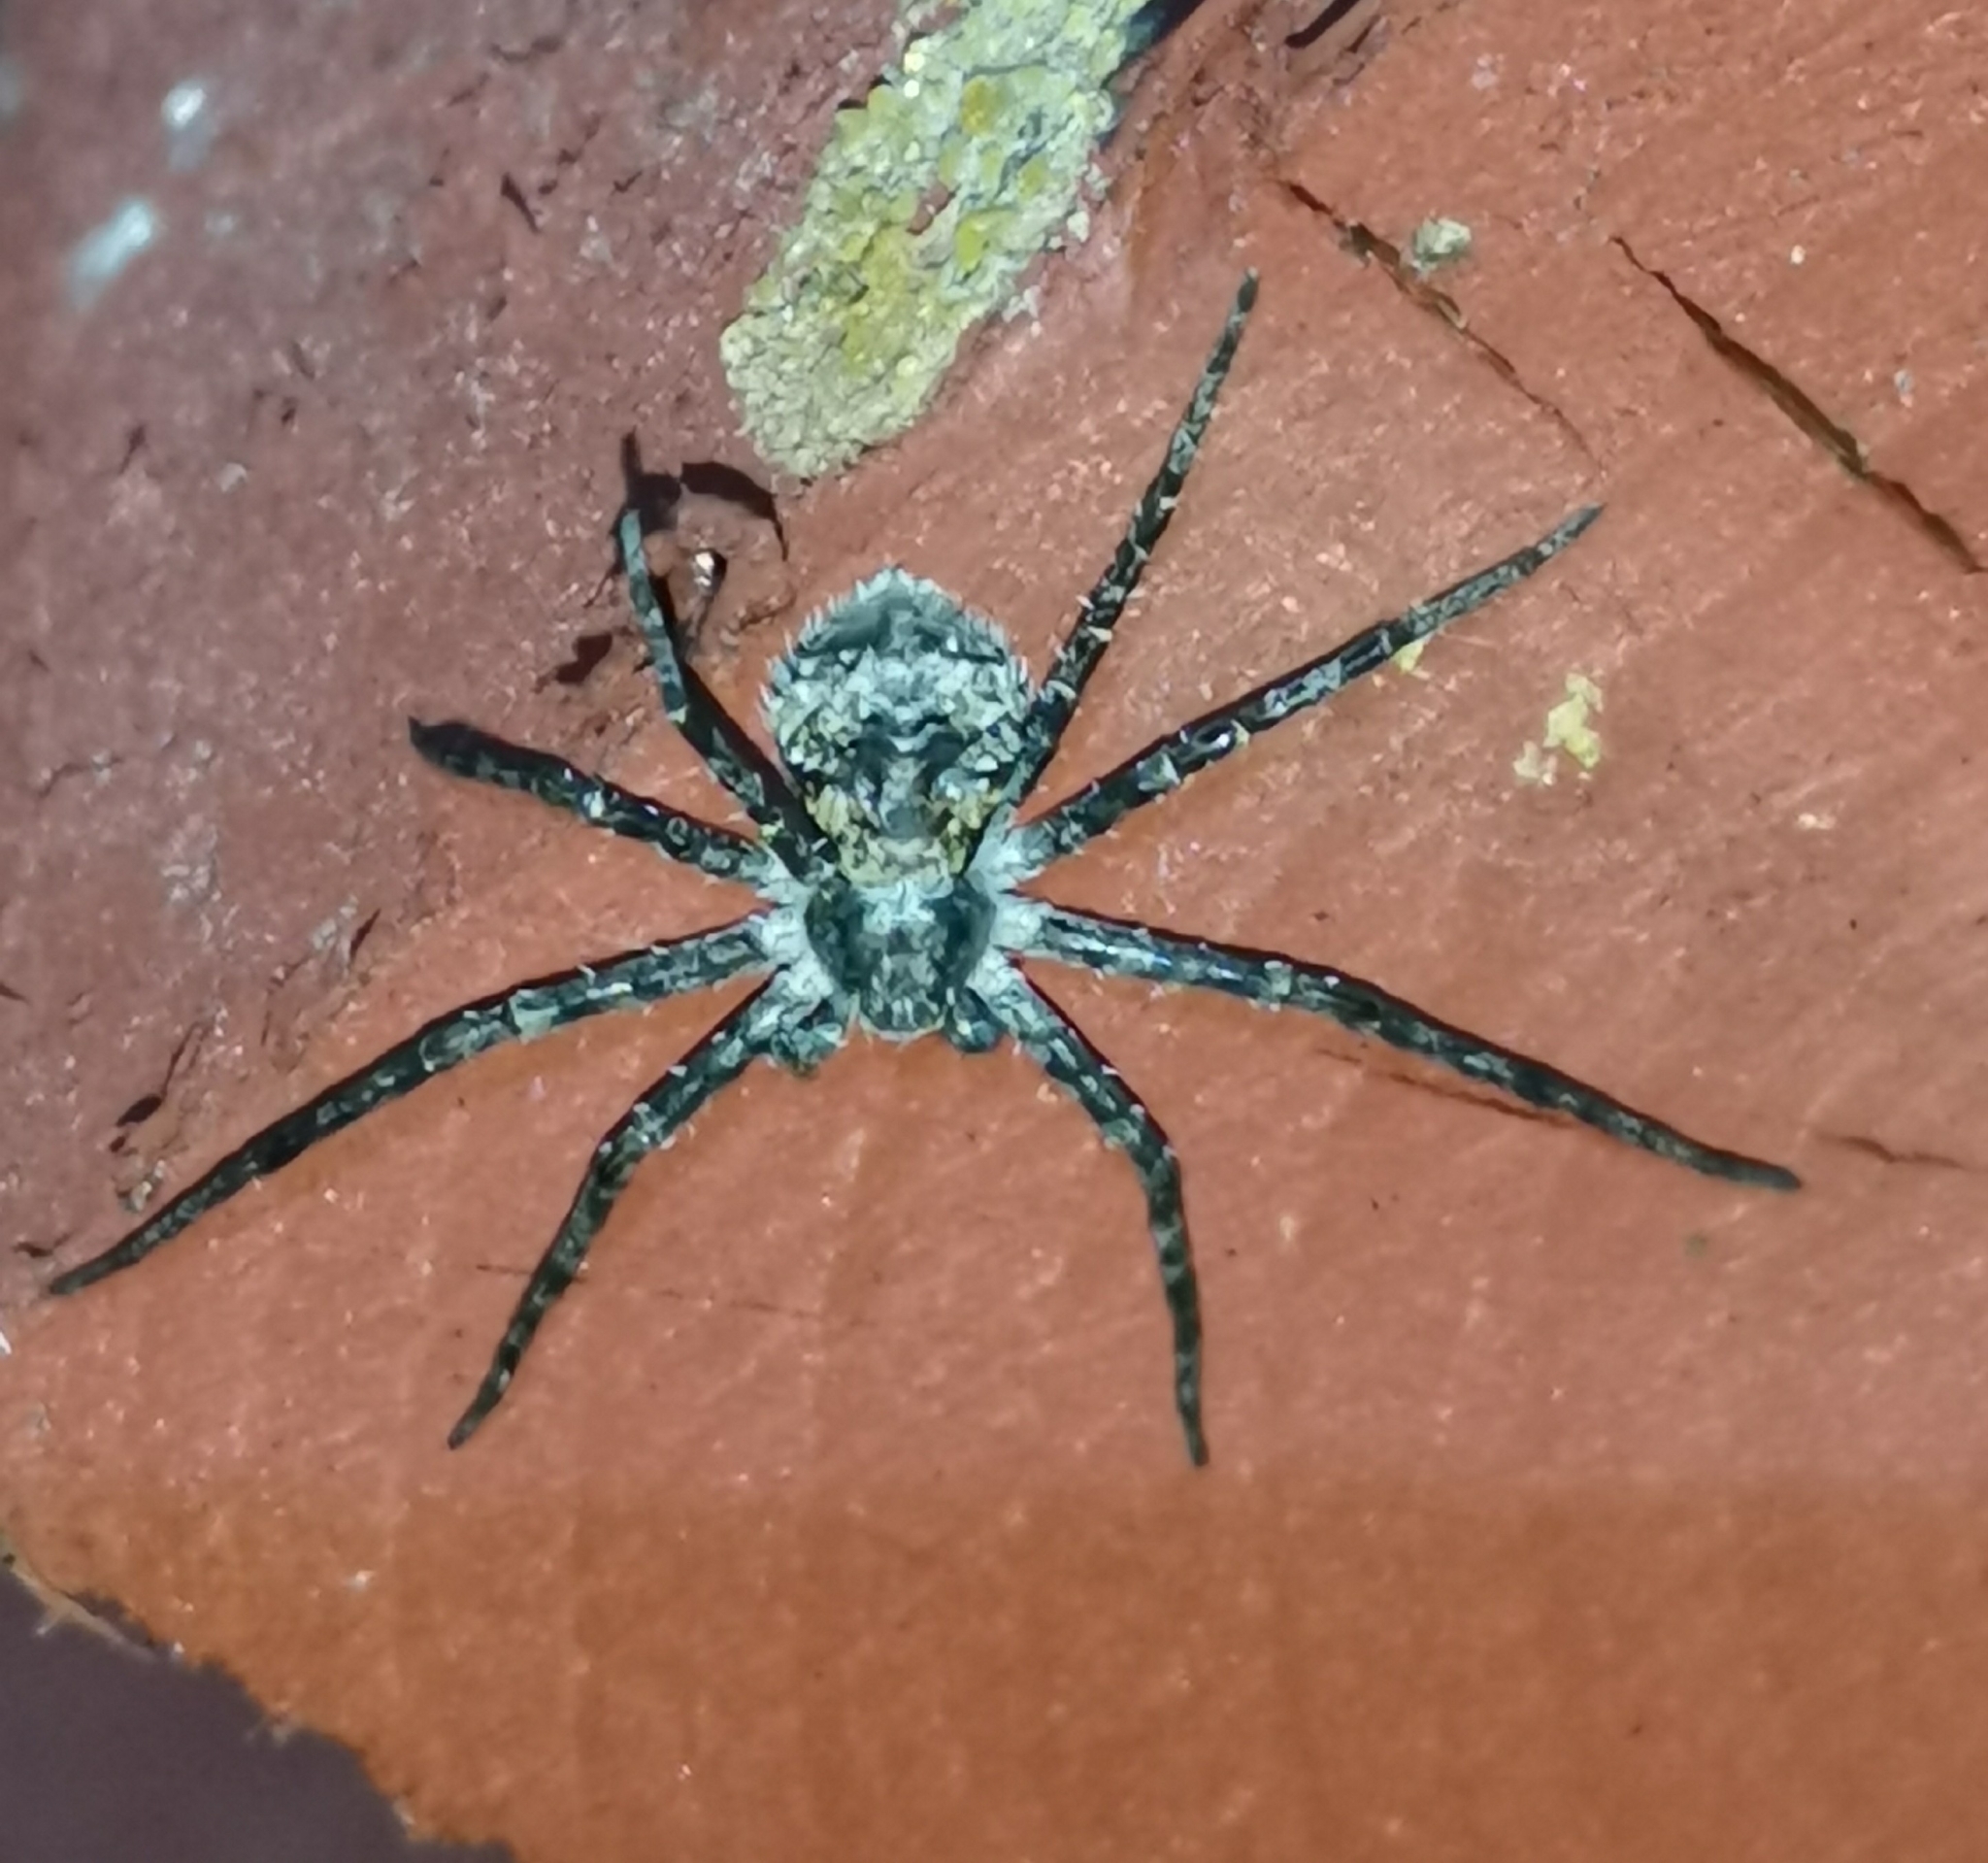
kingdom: Animalia
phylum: Arthropoda
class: Arachnida
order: Araneae
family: Philodromidae
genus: Philodromus
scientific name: Philodromus margaritatus
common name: Lichen running-spider
